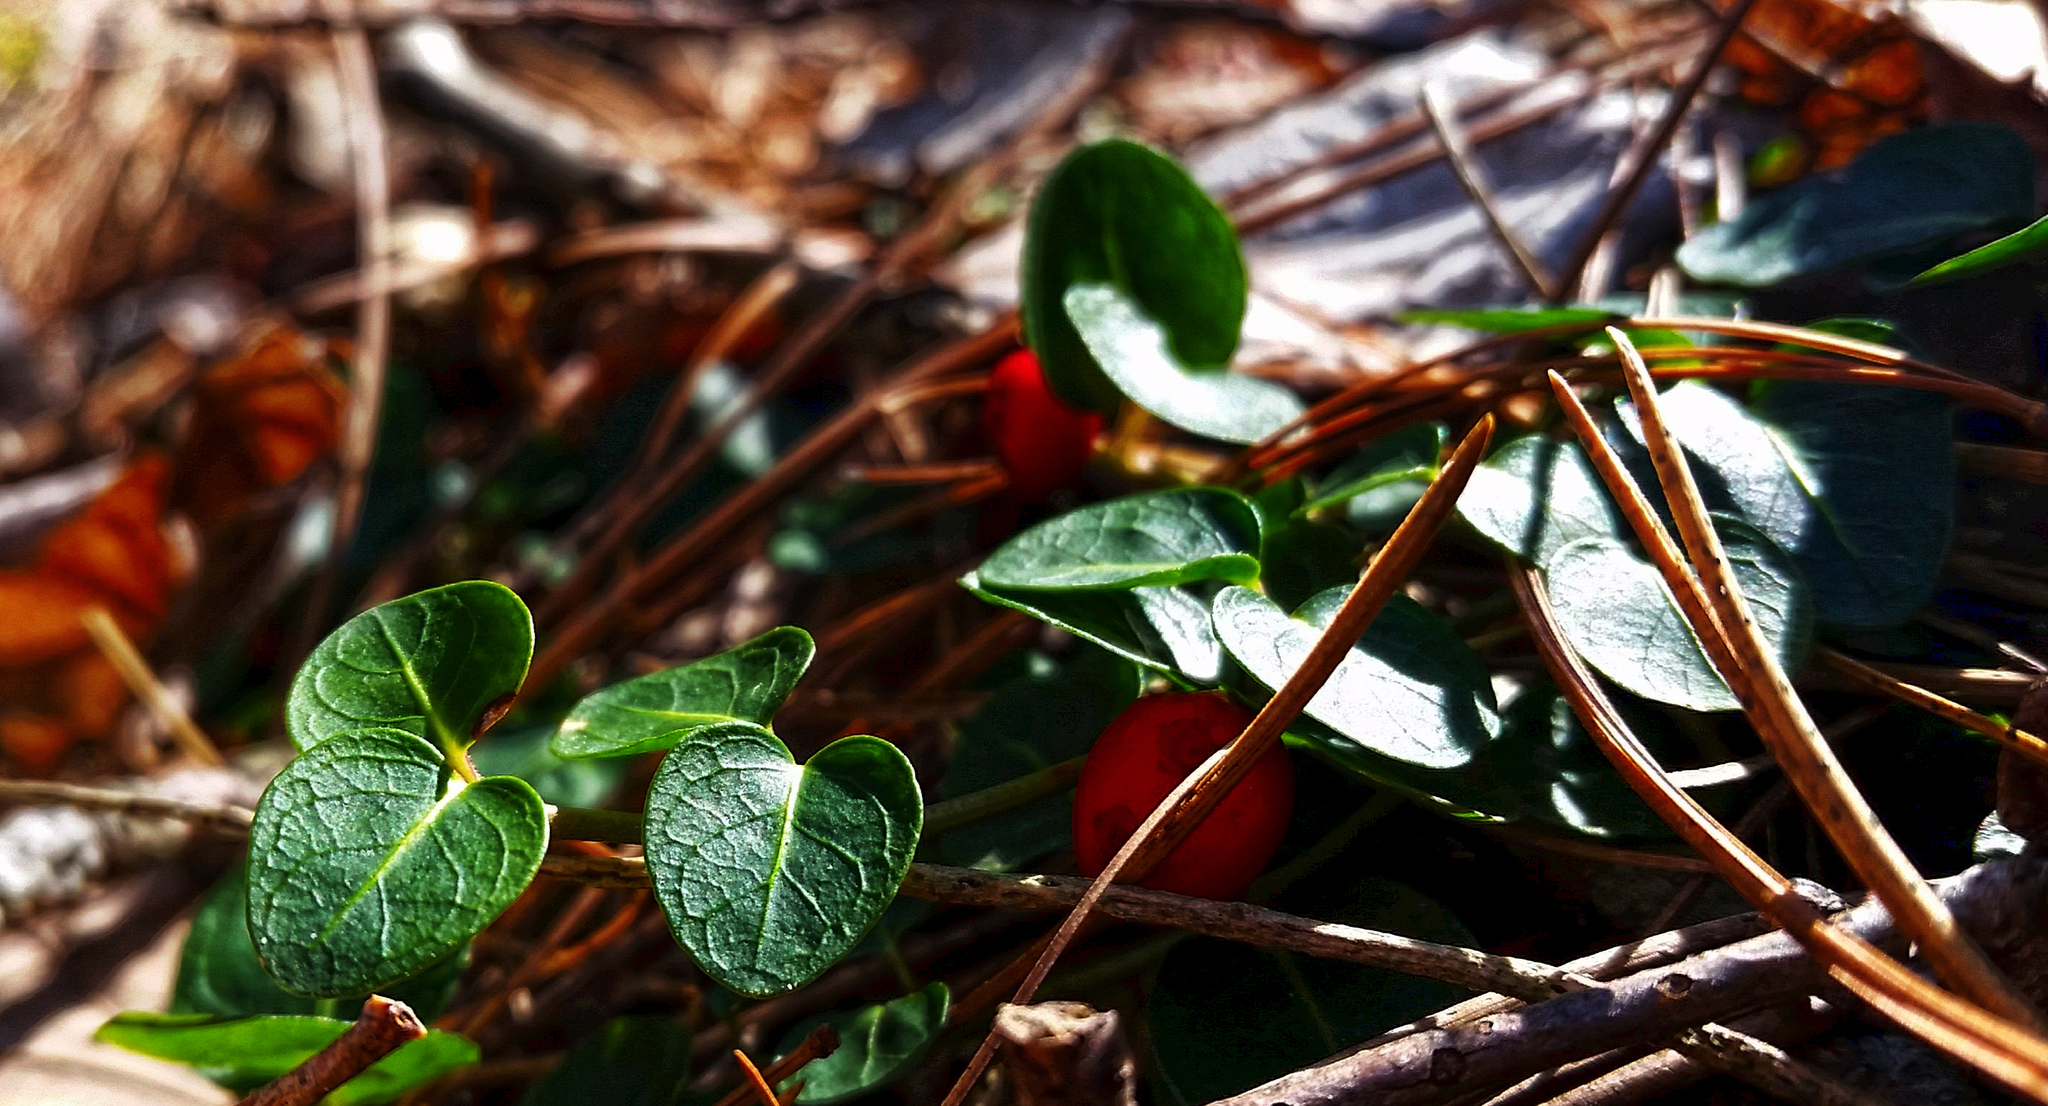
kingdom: Plantae
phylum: Tracheophyta
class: Magnoliopsida
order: Gentianales
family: Rubiaceae
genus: Mitchella
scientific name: Mitchella repens
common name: Partridge-berry
